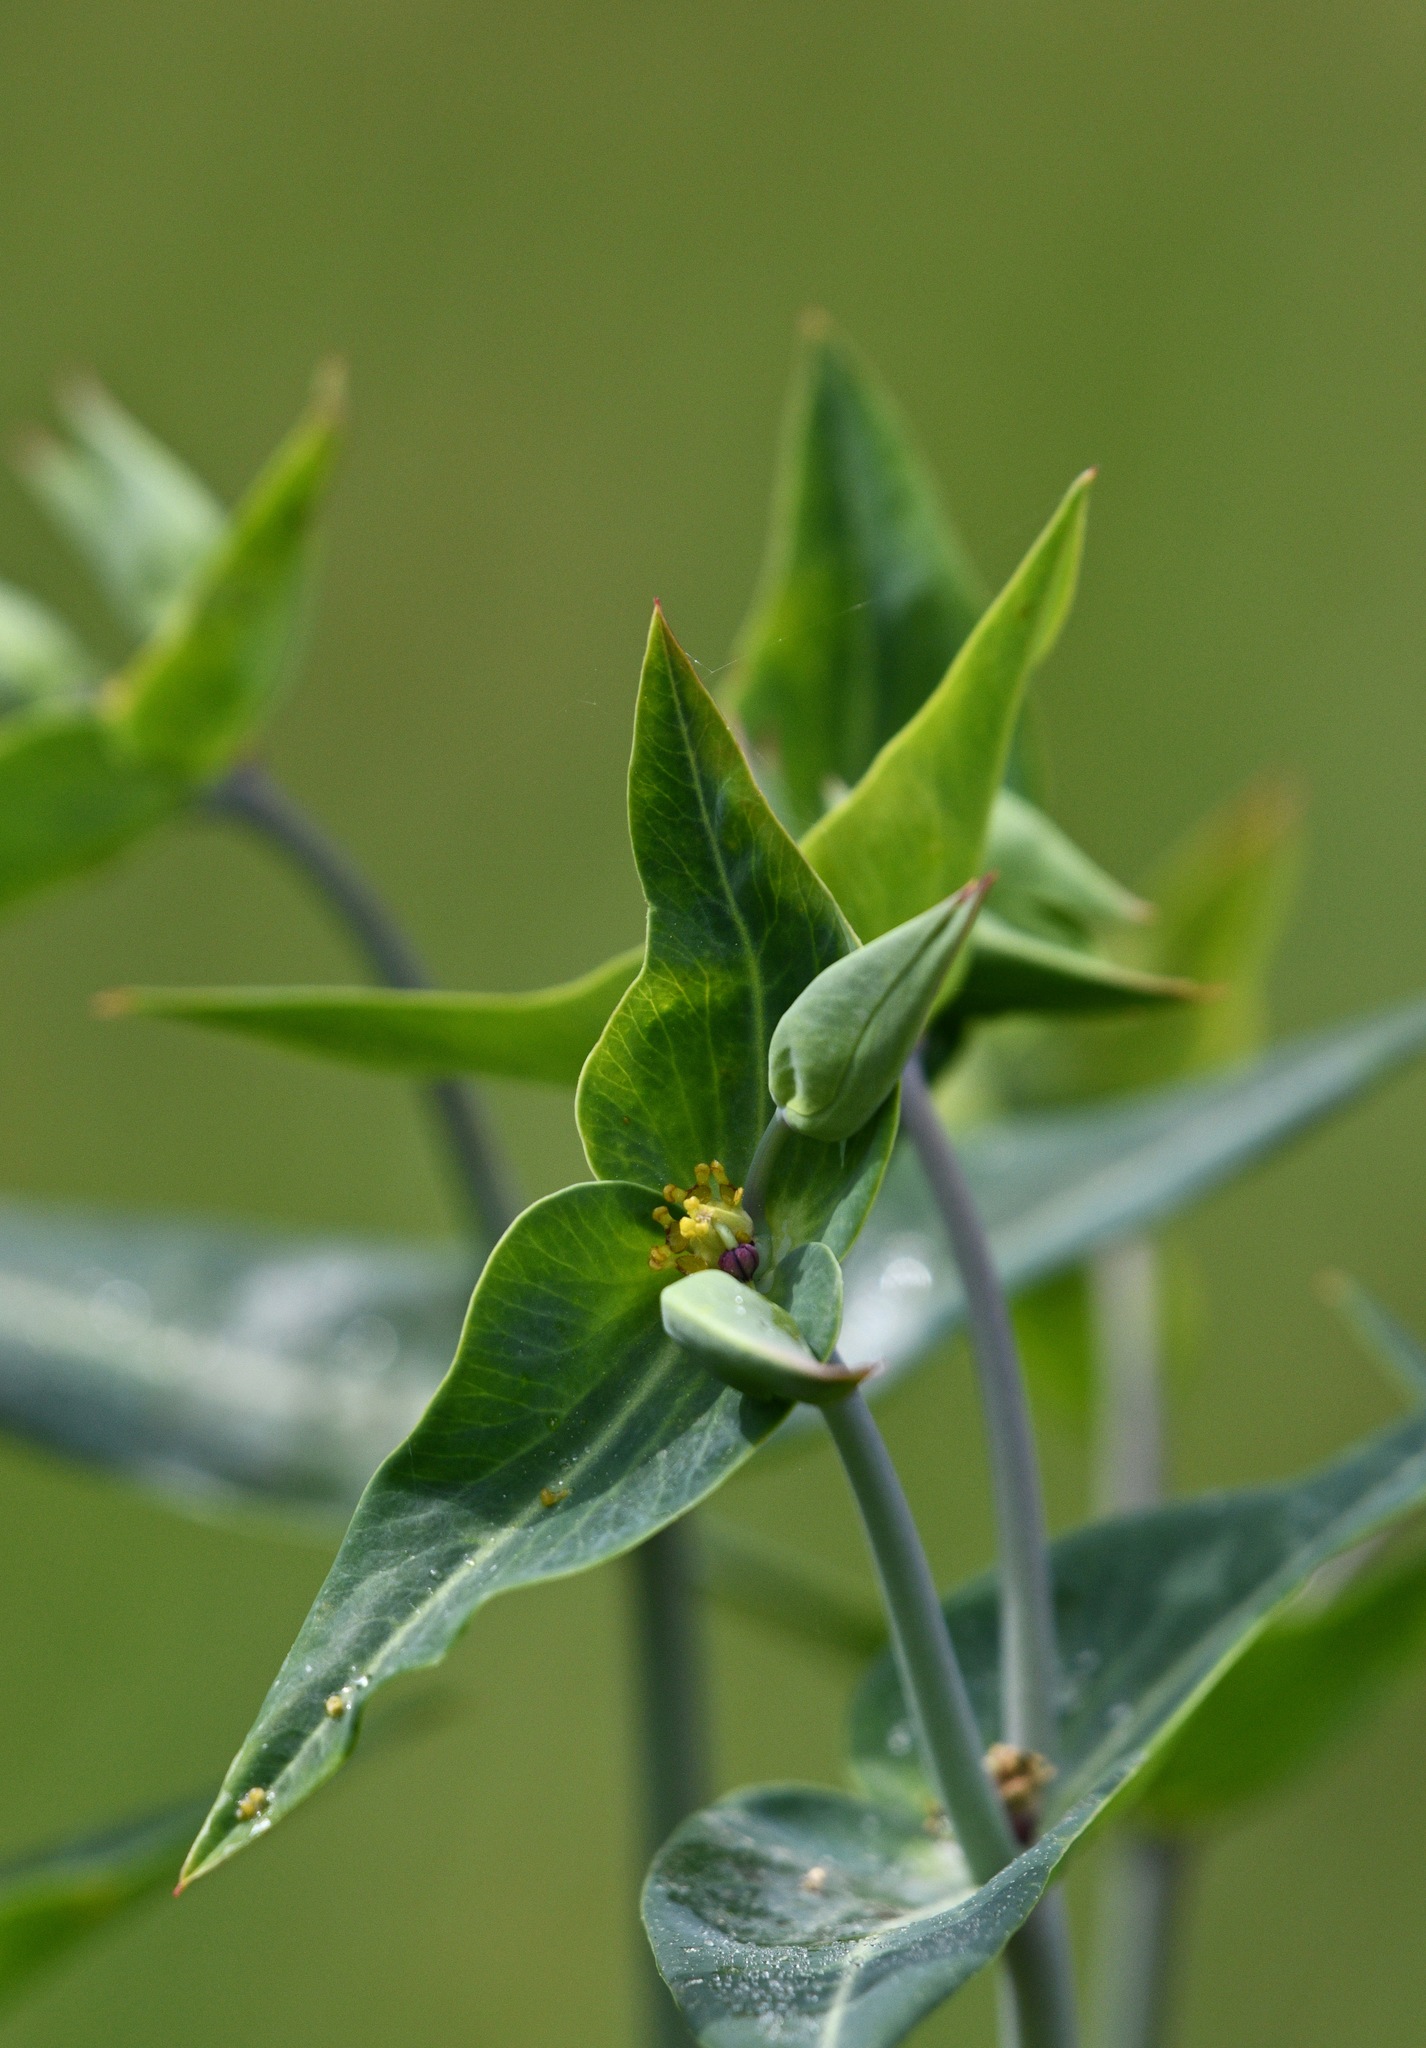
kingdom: Plantae
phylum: Tracheophyta
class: Magnoliopsida
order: Malpighiales
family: Euphorbiaceae
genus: Euphorbia
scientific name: Euphorbia lathyris
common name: Caper spurge
